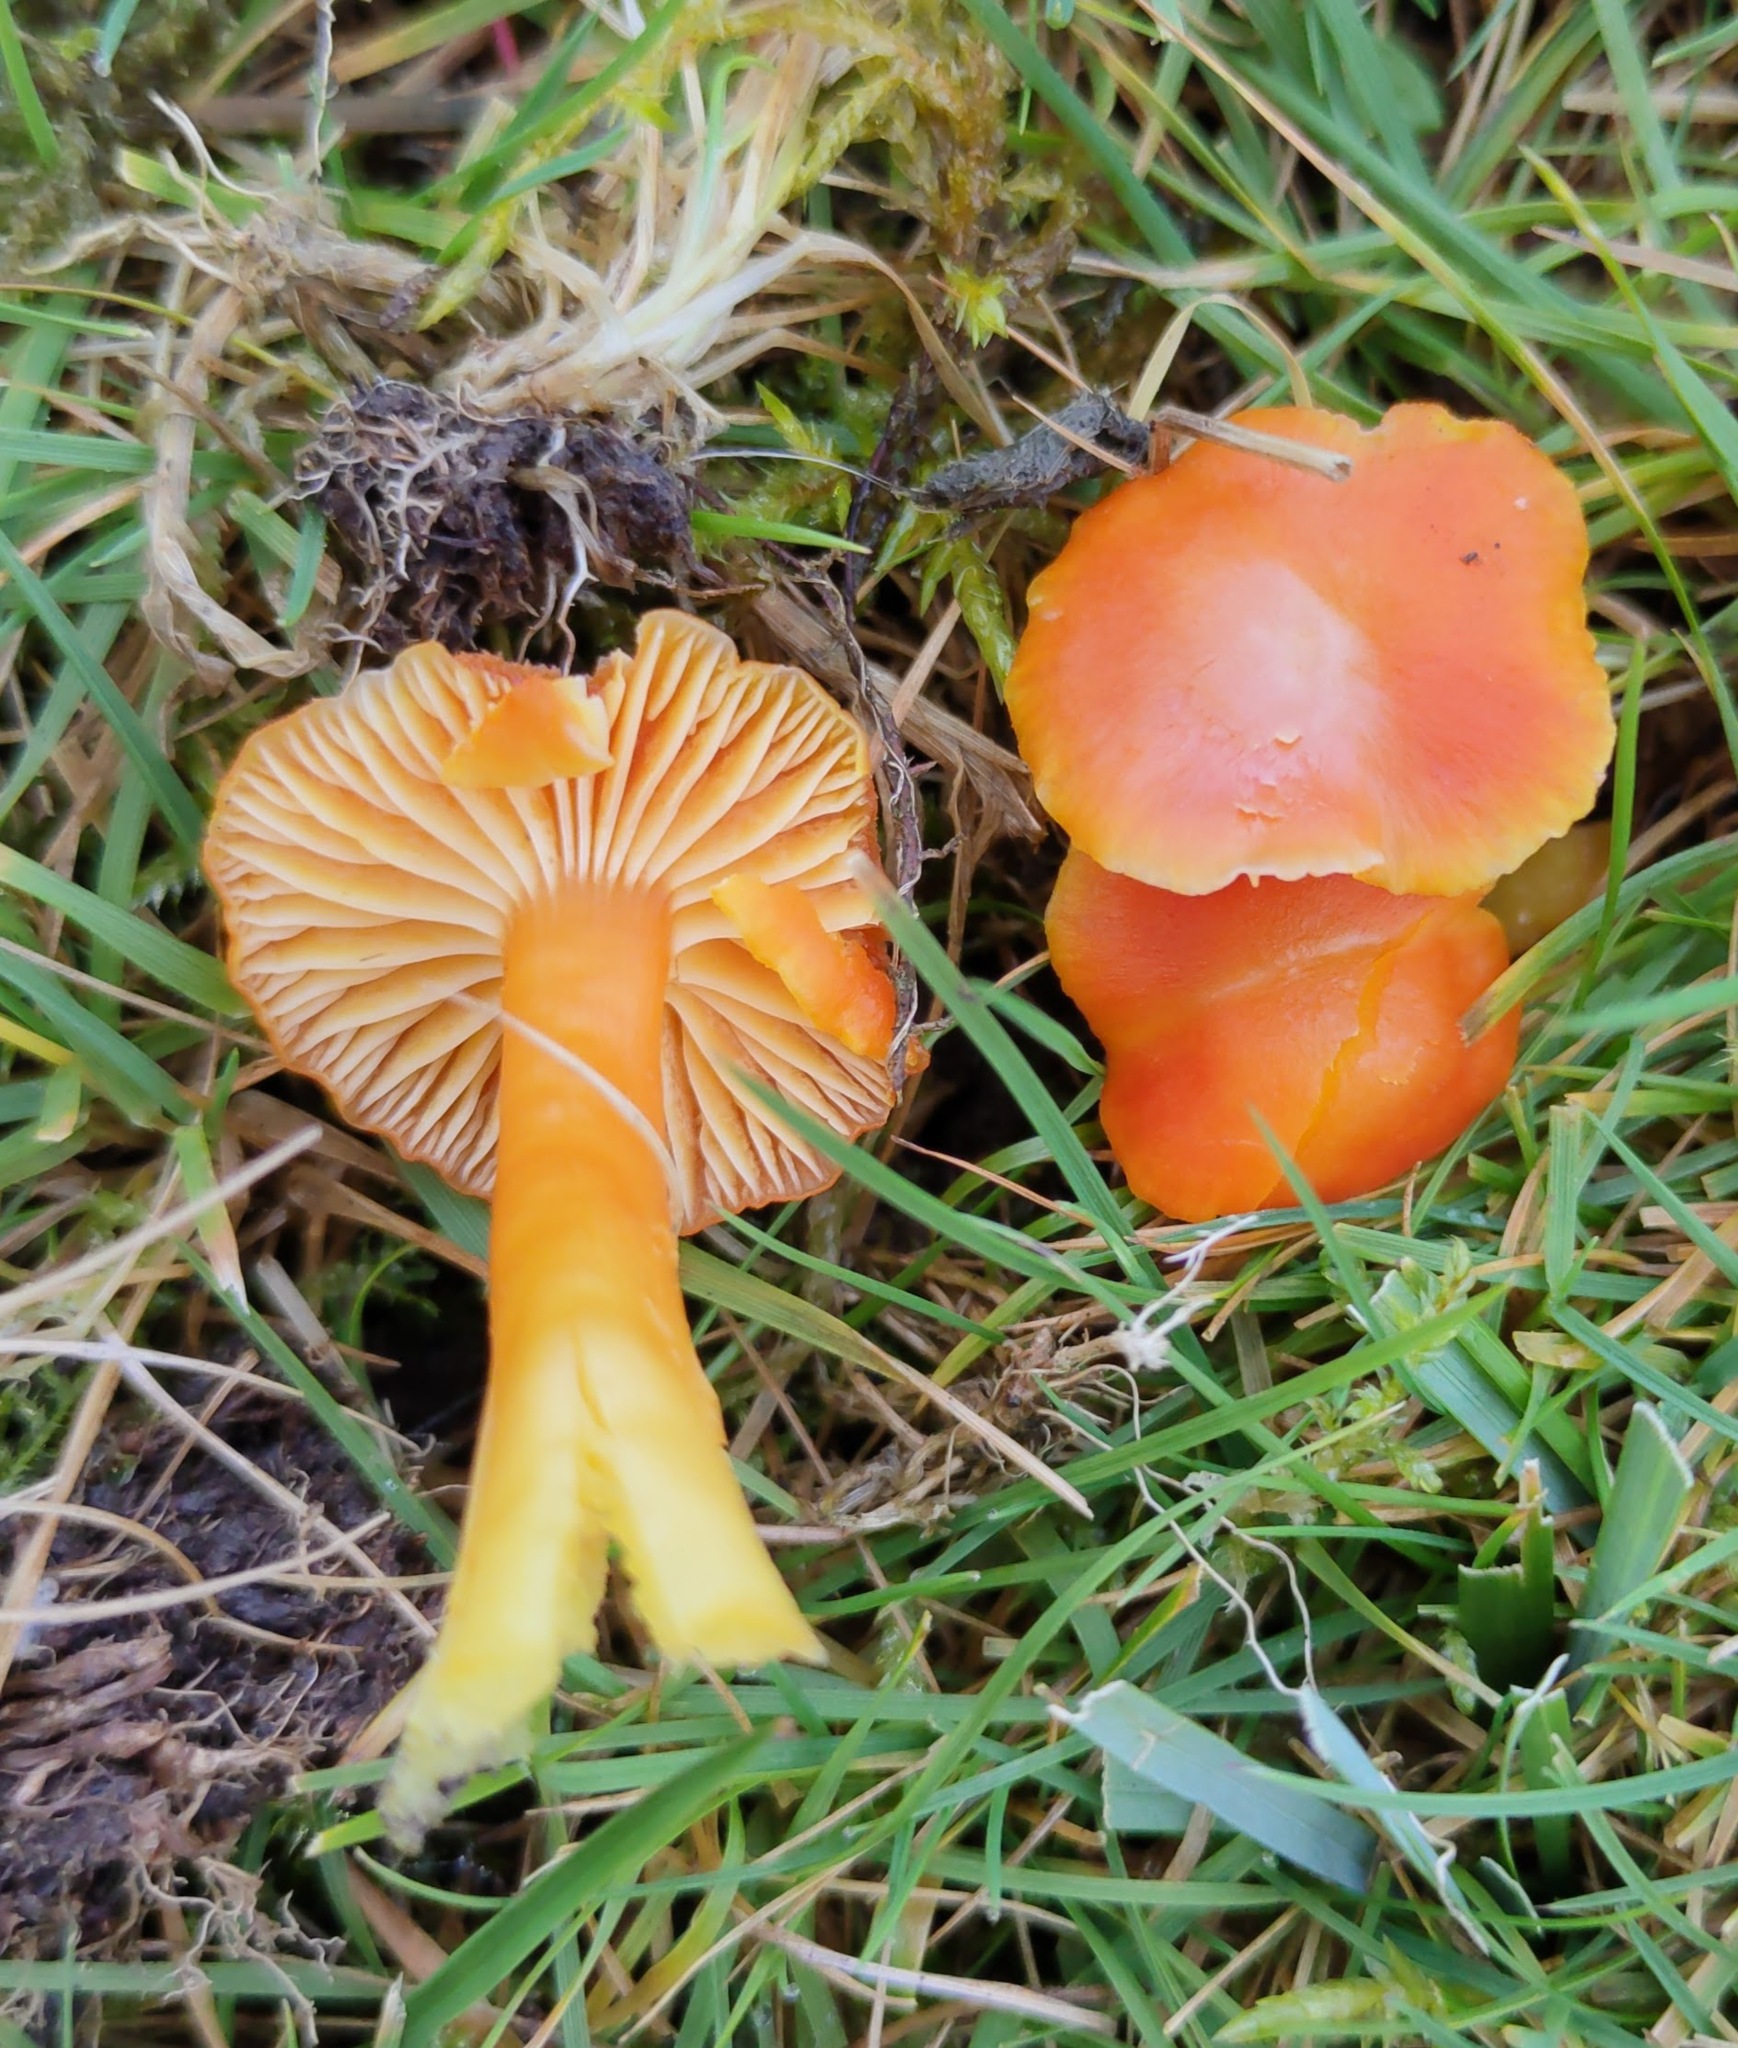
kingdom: Fungi
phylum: Basidiomycota
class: Agaricomycetes
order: Agaricales
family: Hygrophoraceae
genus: Hygrocybe
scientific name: Hygrocybe reidii
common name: Honey waxcap
